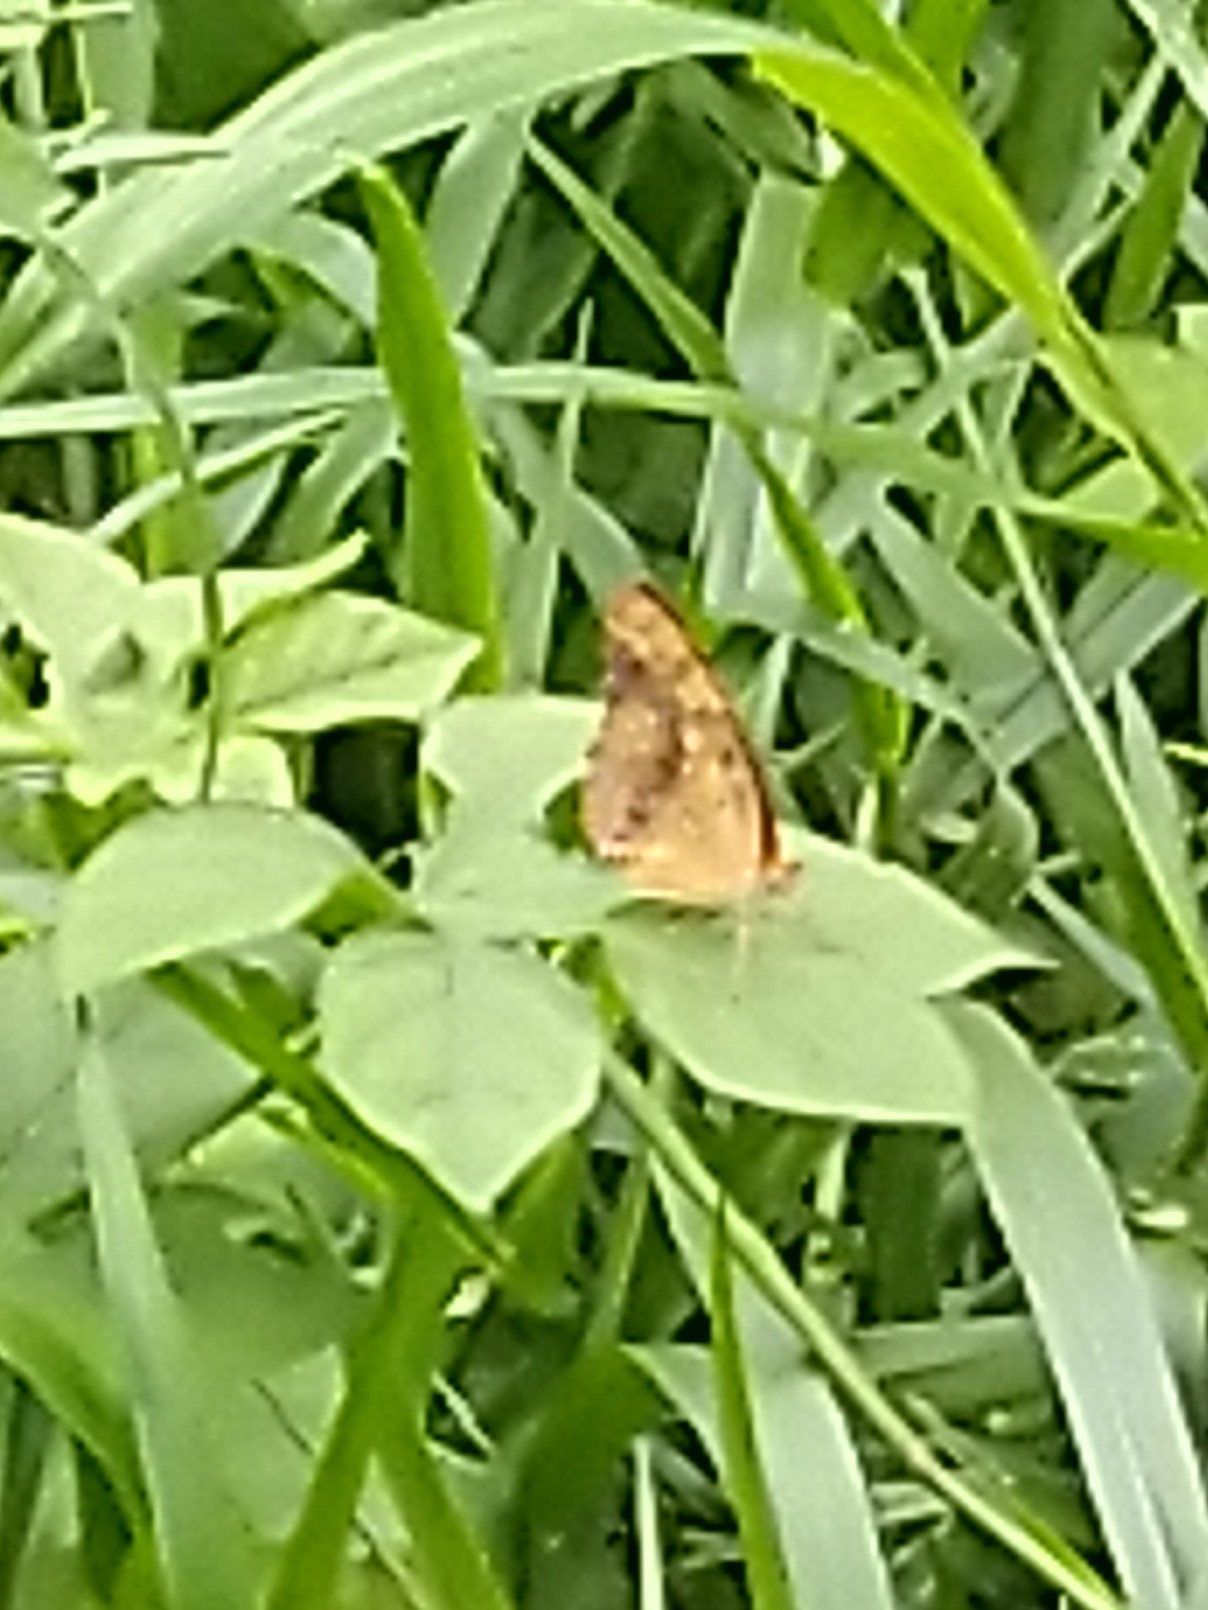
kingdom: Animalia
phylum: Arthropoda
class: Insecta
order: Lepidoptera
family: Nymphalidae
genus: Cupha
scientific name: Cupha erymanthis
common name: Rustic
